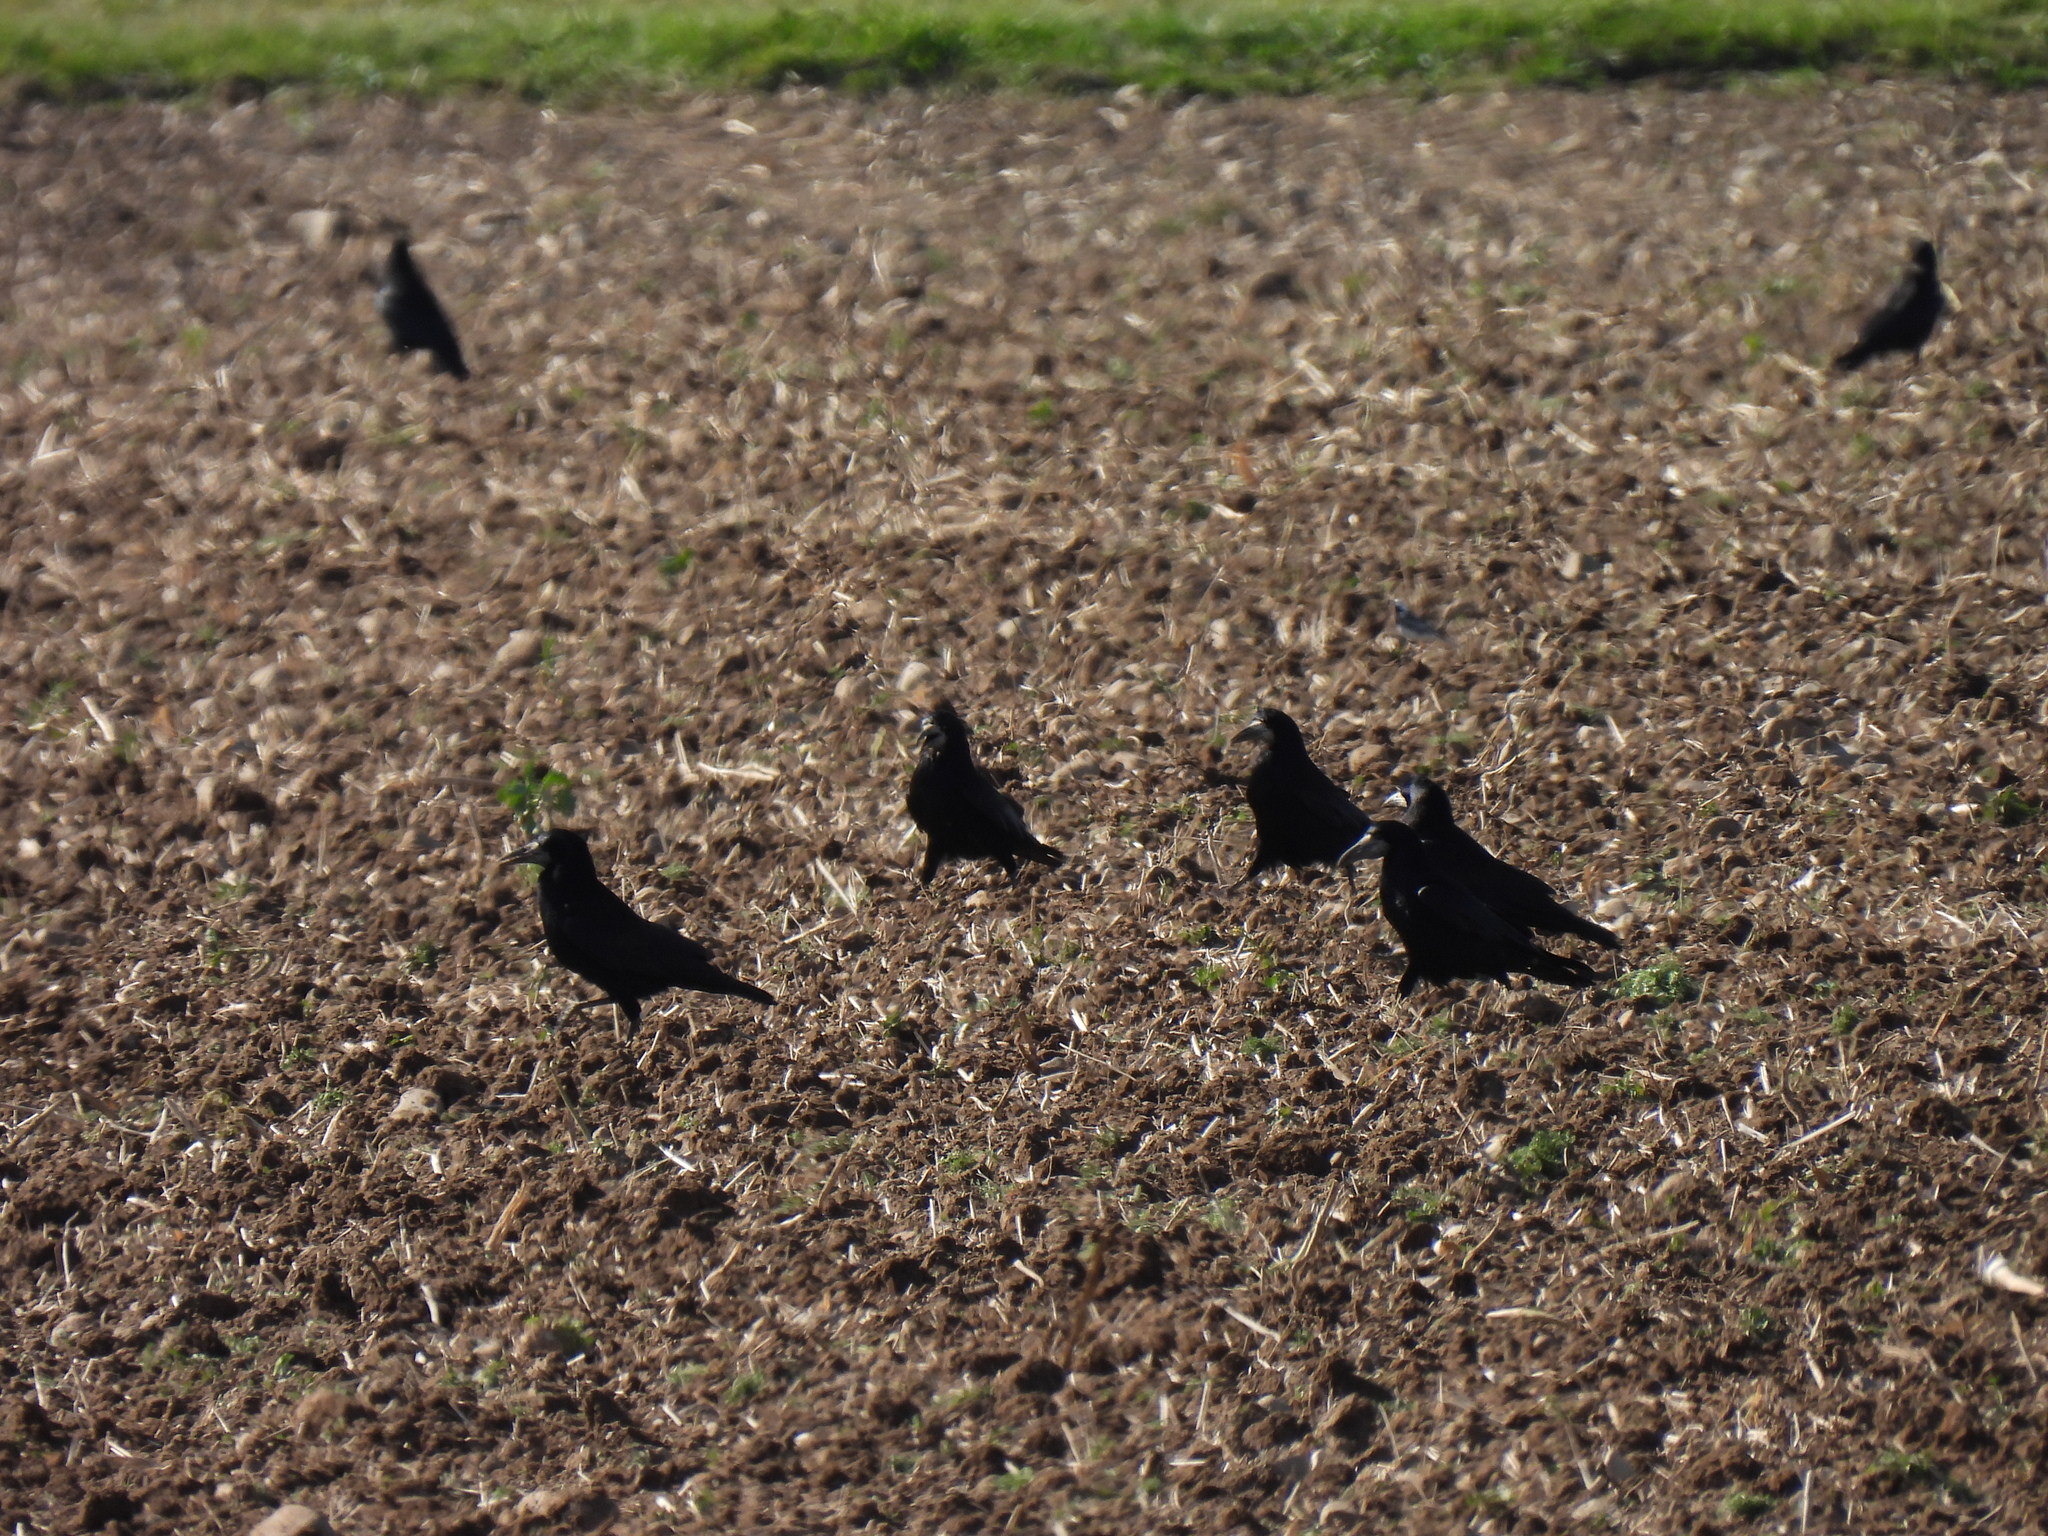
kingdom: Animalia
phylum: Chordata
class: Aves
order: Passeriformes
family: Corvidae
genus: Corvus
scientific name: Corvus frugilegus
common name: Rook
